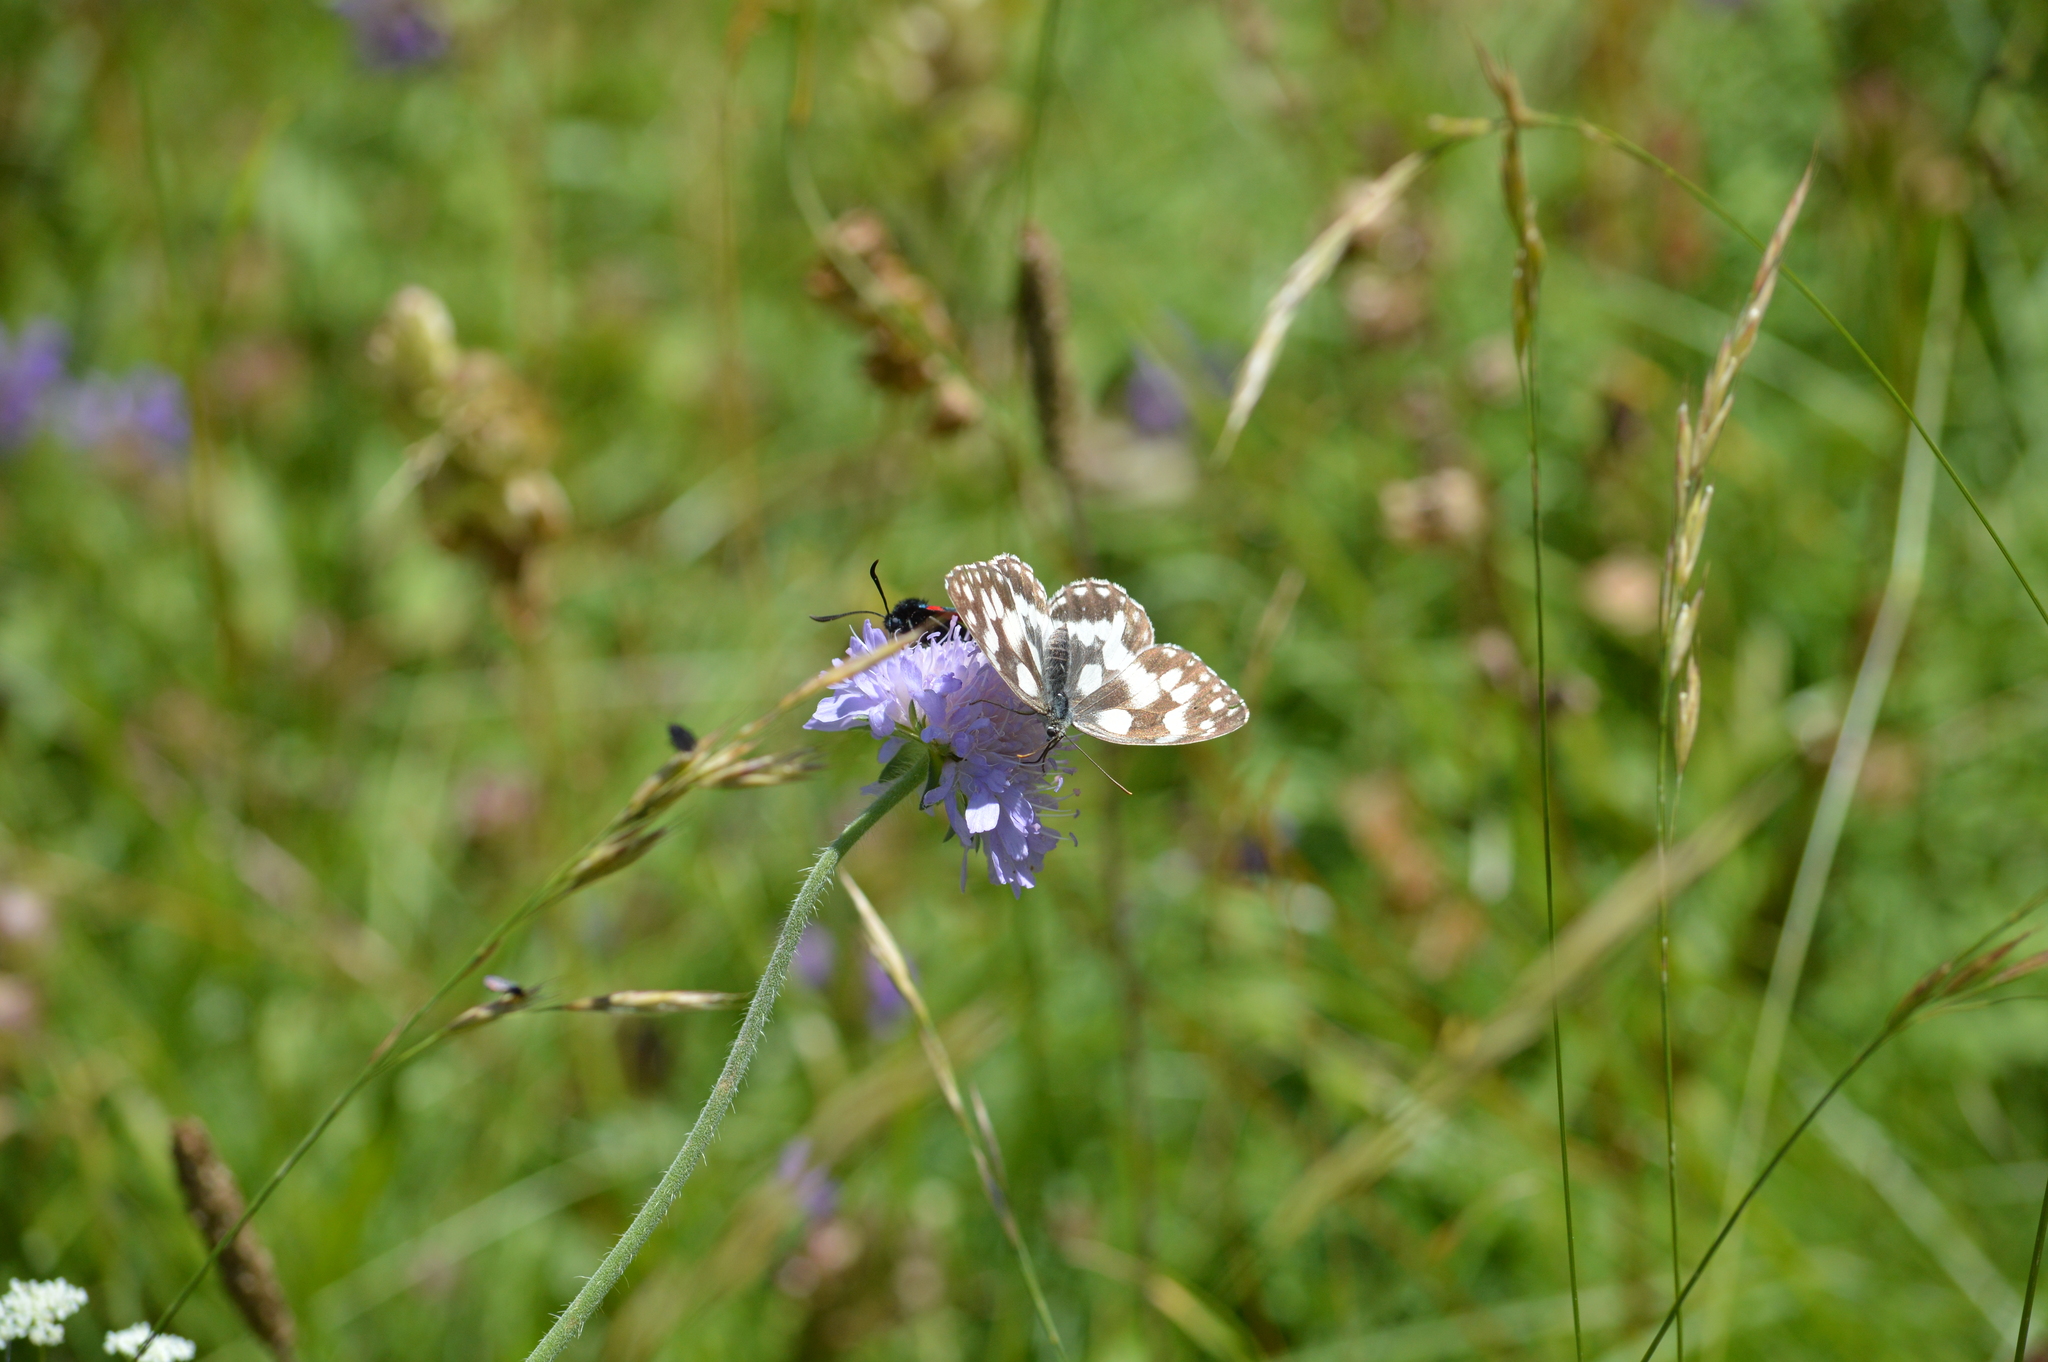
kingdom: Animalia
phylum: Arthropoda
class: Insecta
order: Lepidoptera
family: Nymphalidae
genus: Melanargia
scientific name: Melanargia galathea
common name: Marbled white
